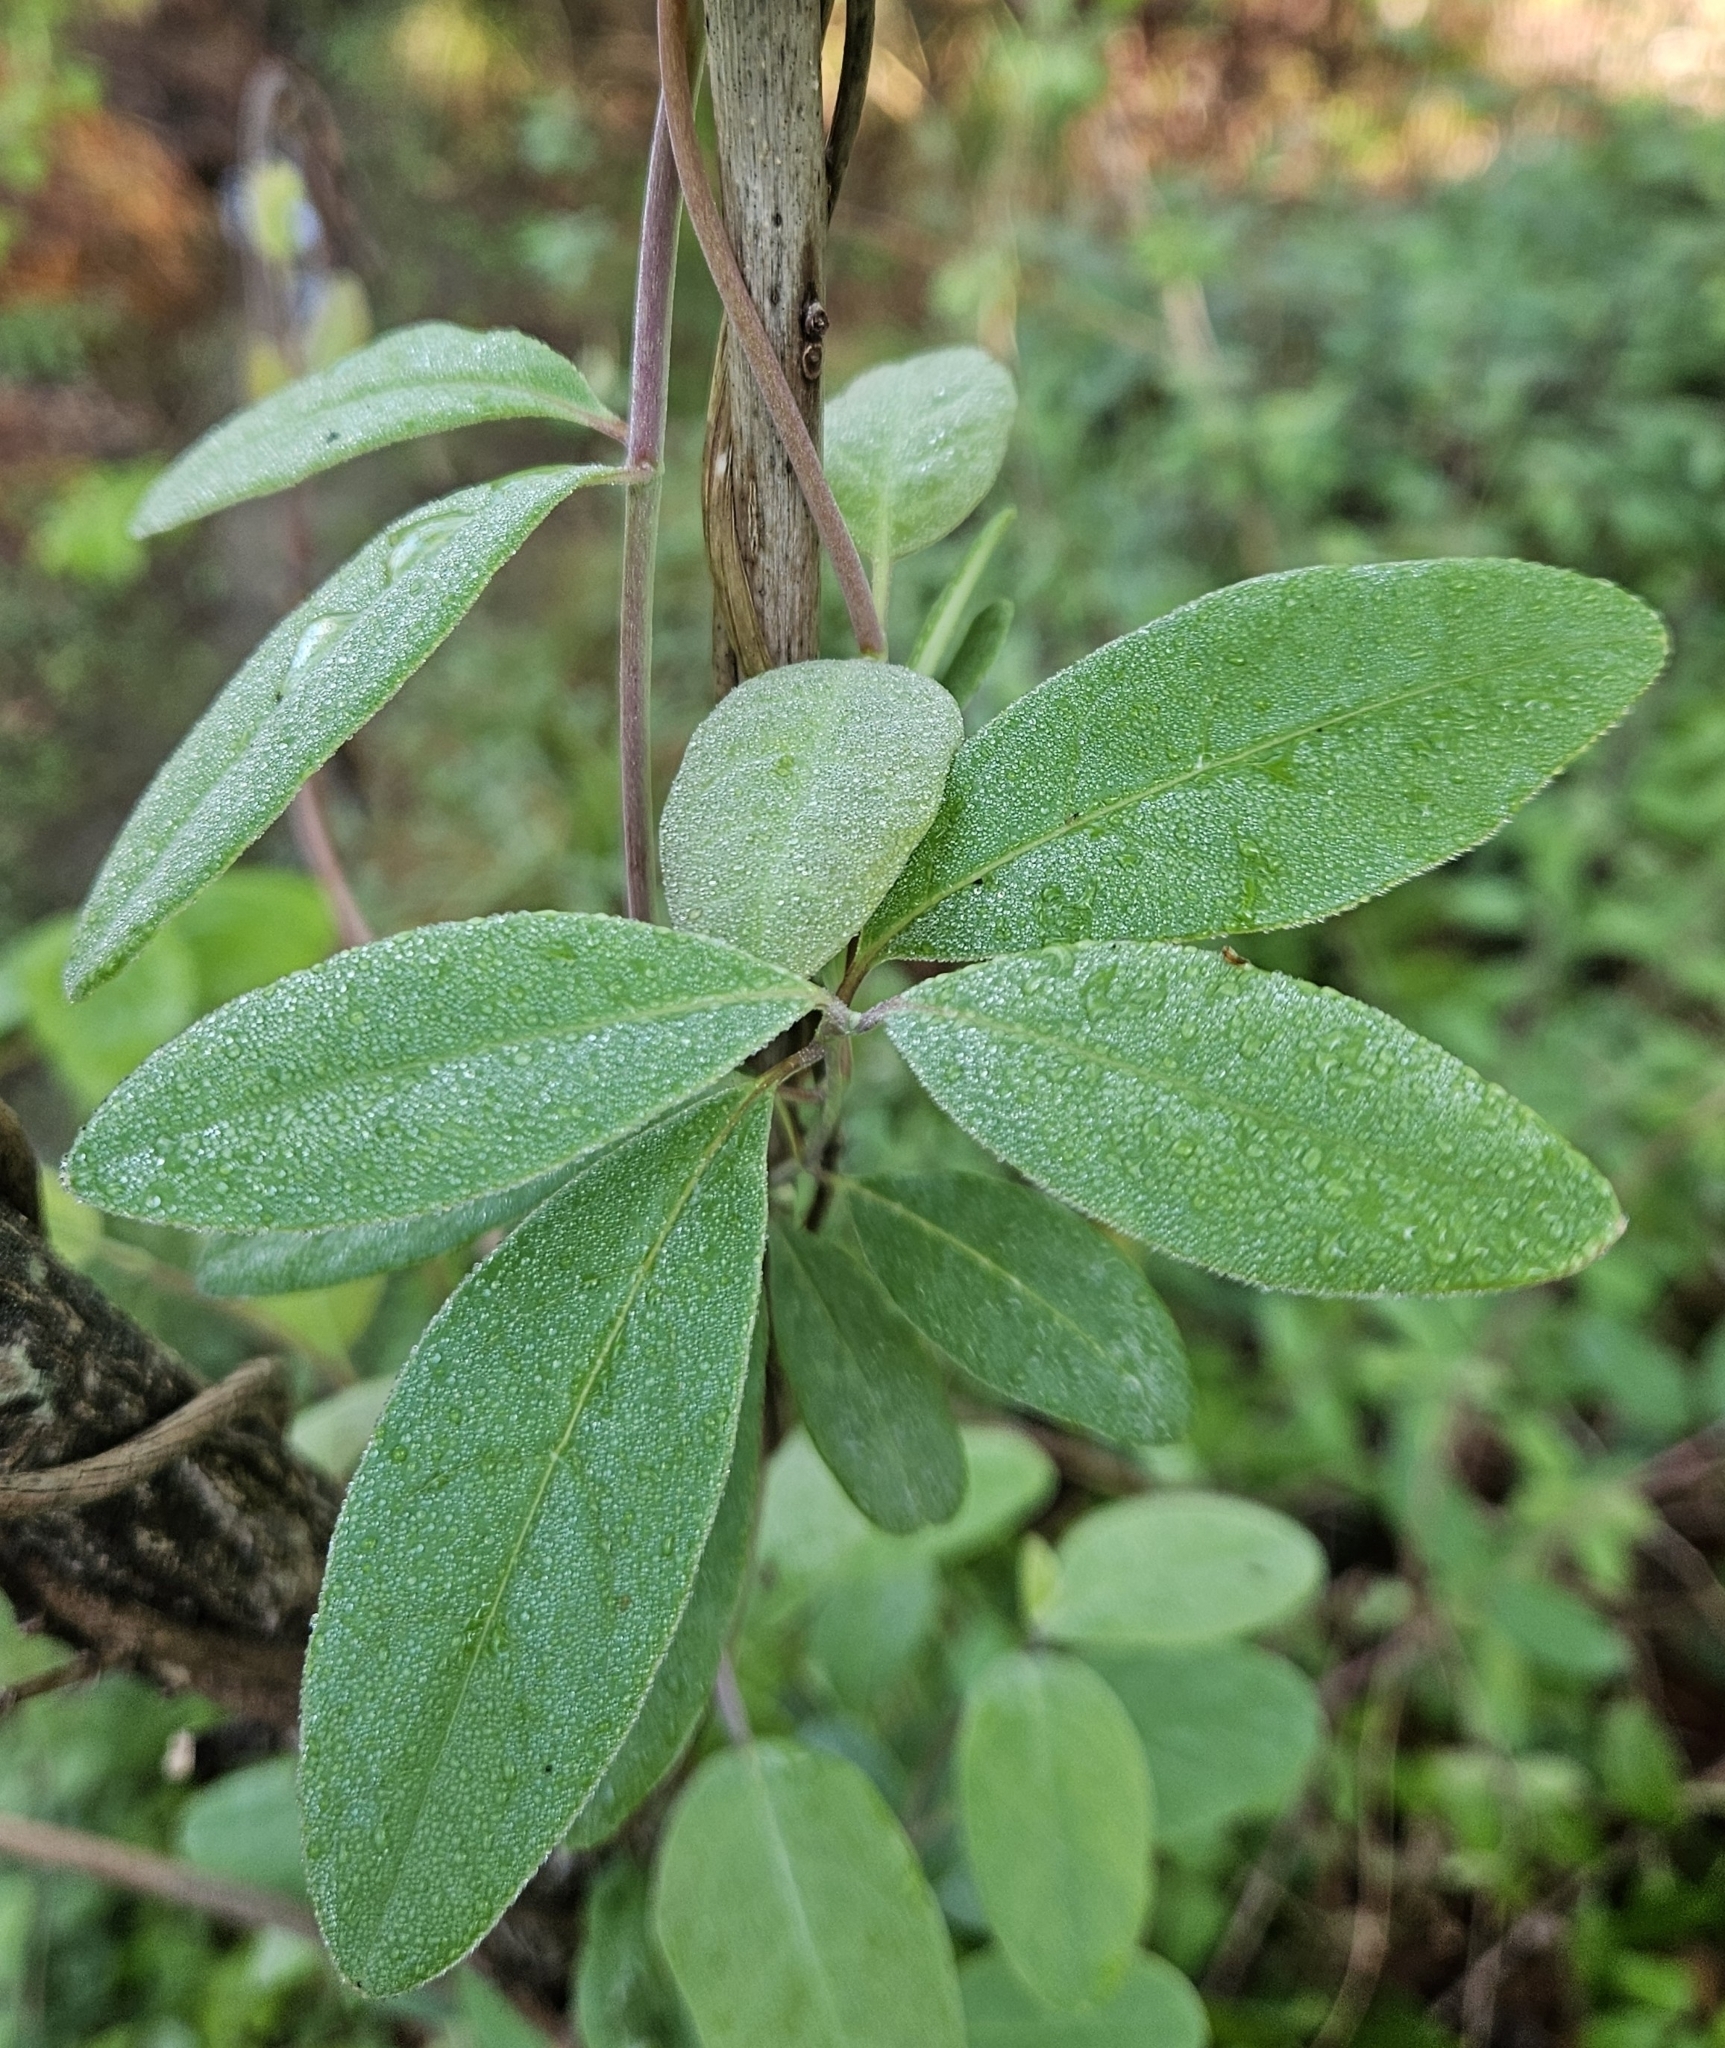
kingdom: Plantae
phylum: Tracheophyta
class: Magnoliopsida
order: Dipsacales
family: Caprifoliaceae
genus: Lonicera
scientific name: Lonicera japonica
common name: Japanese honeysuckle
